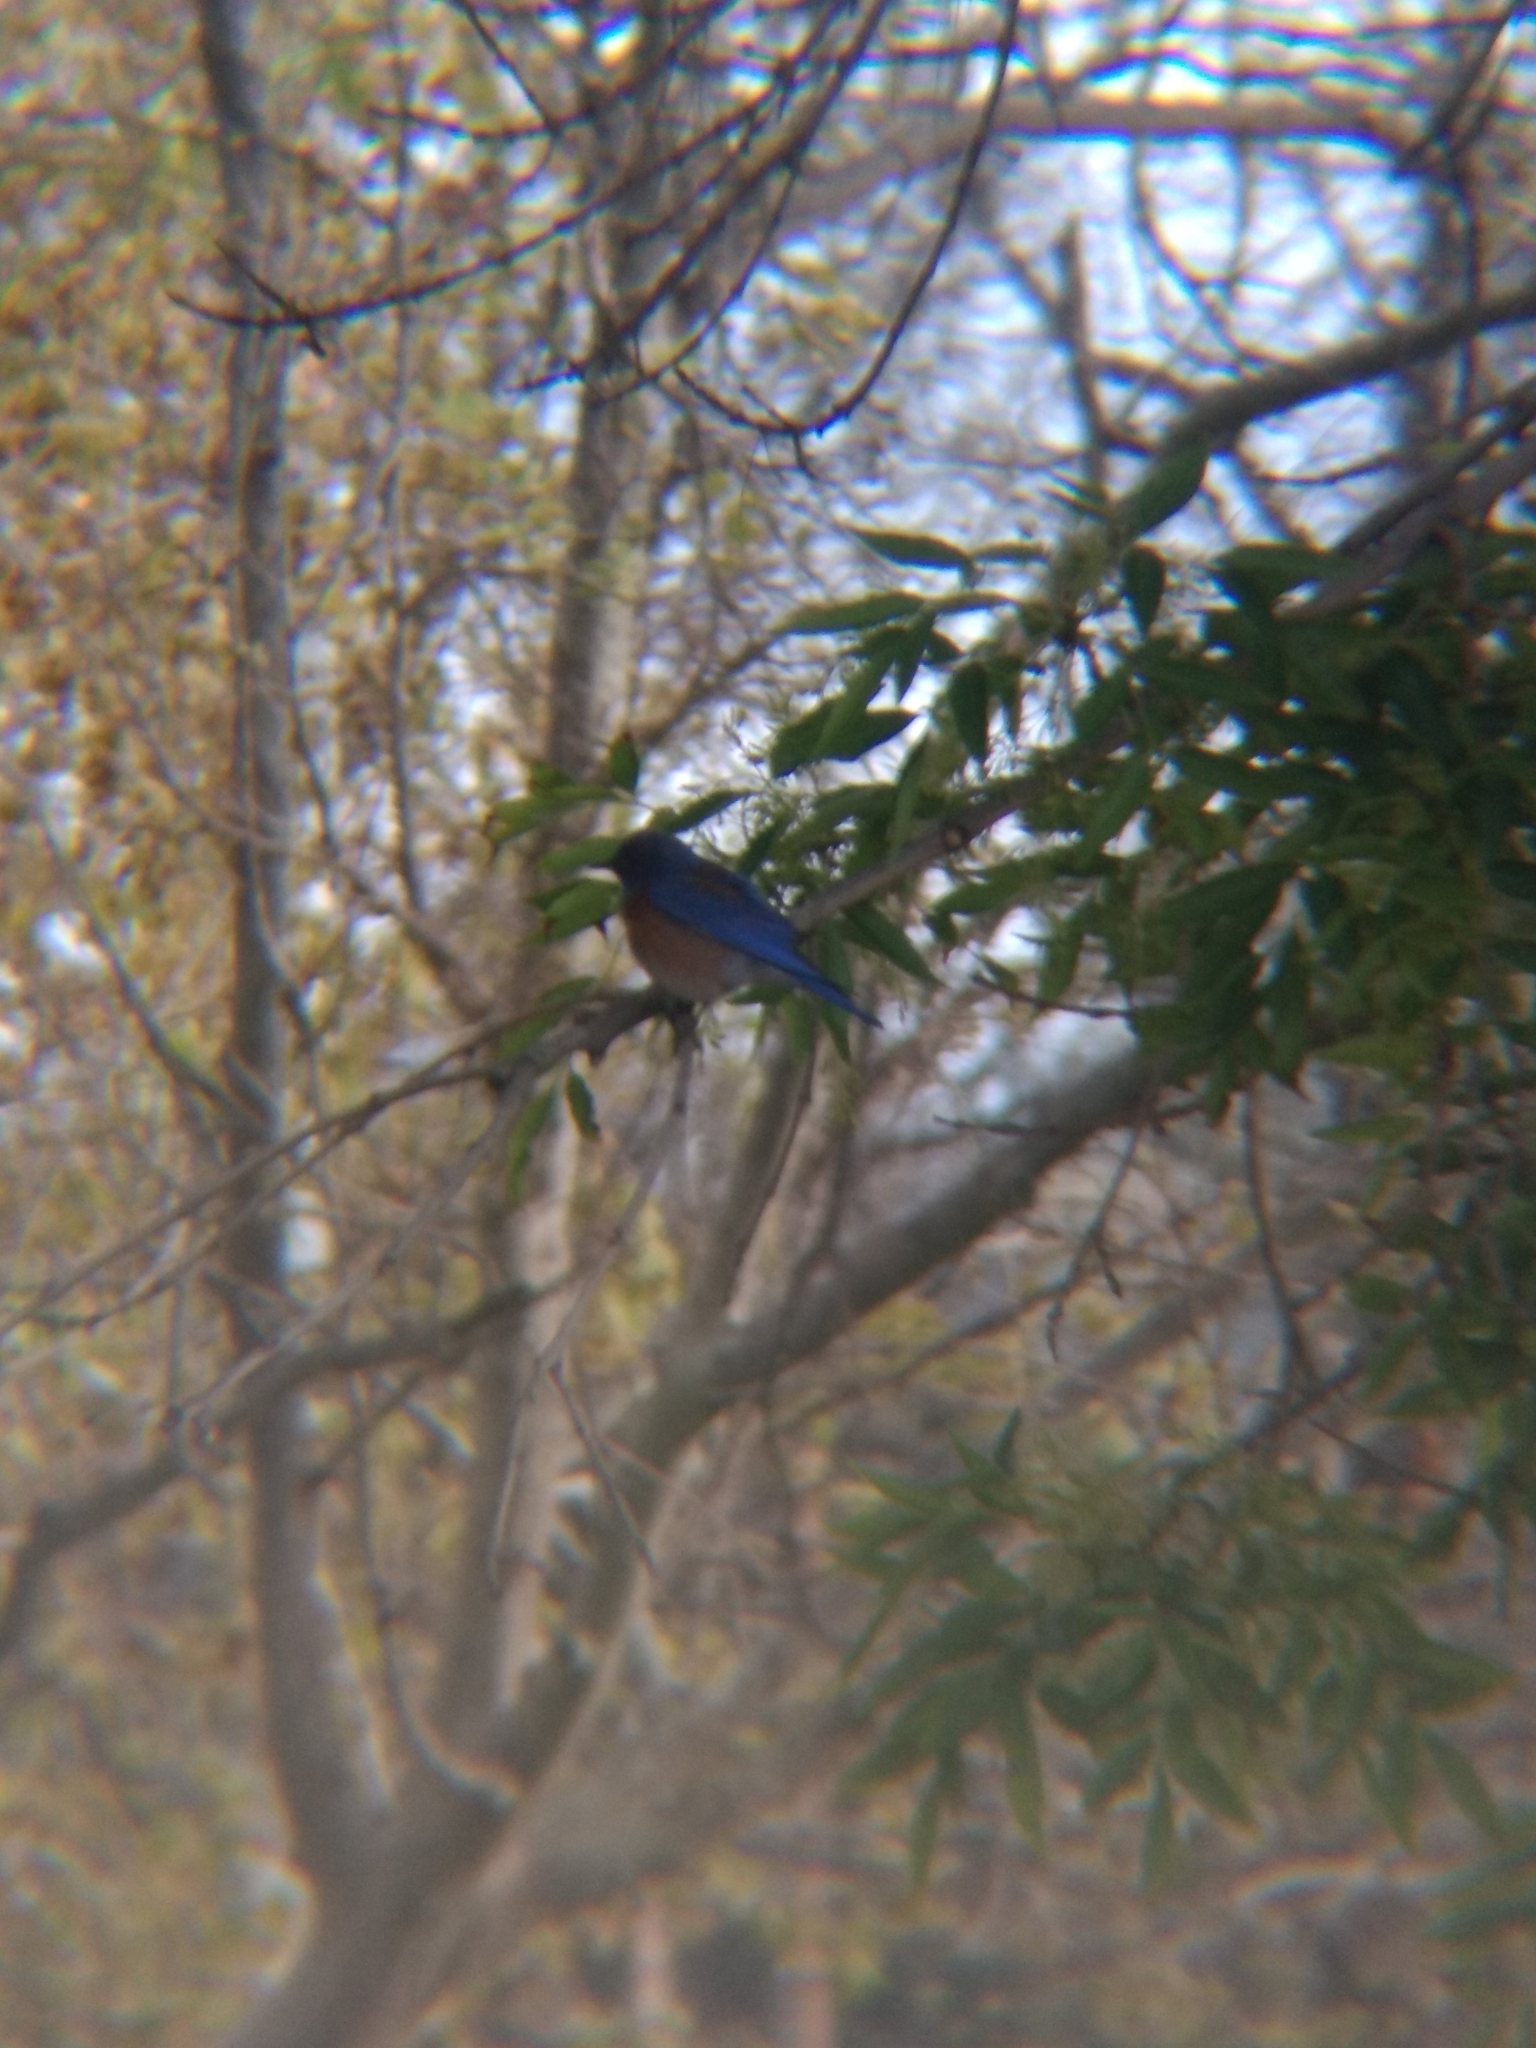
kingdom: Animalia
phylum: Chordata
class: Aves
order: Passeriformes
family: Turdidae
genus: Sialia
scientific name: Sialia mexicana
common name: Western bluebird
